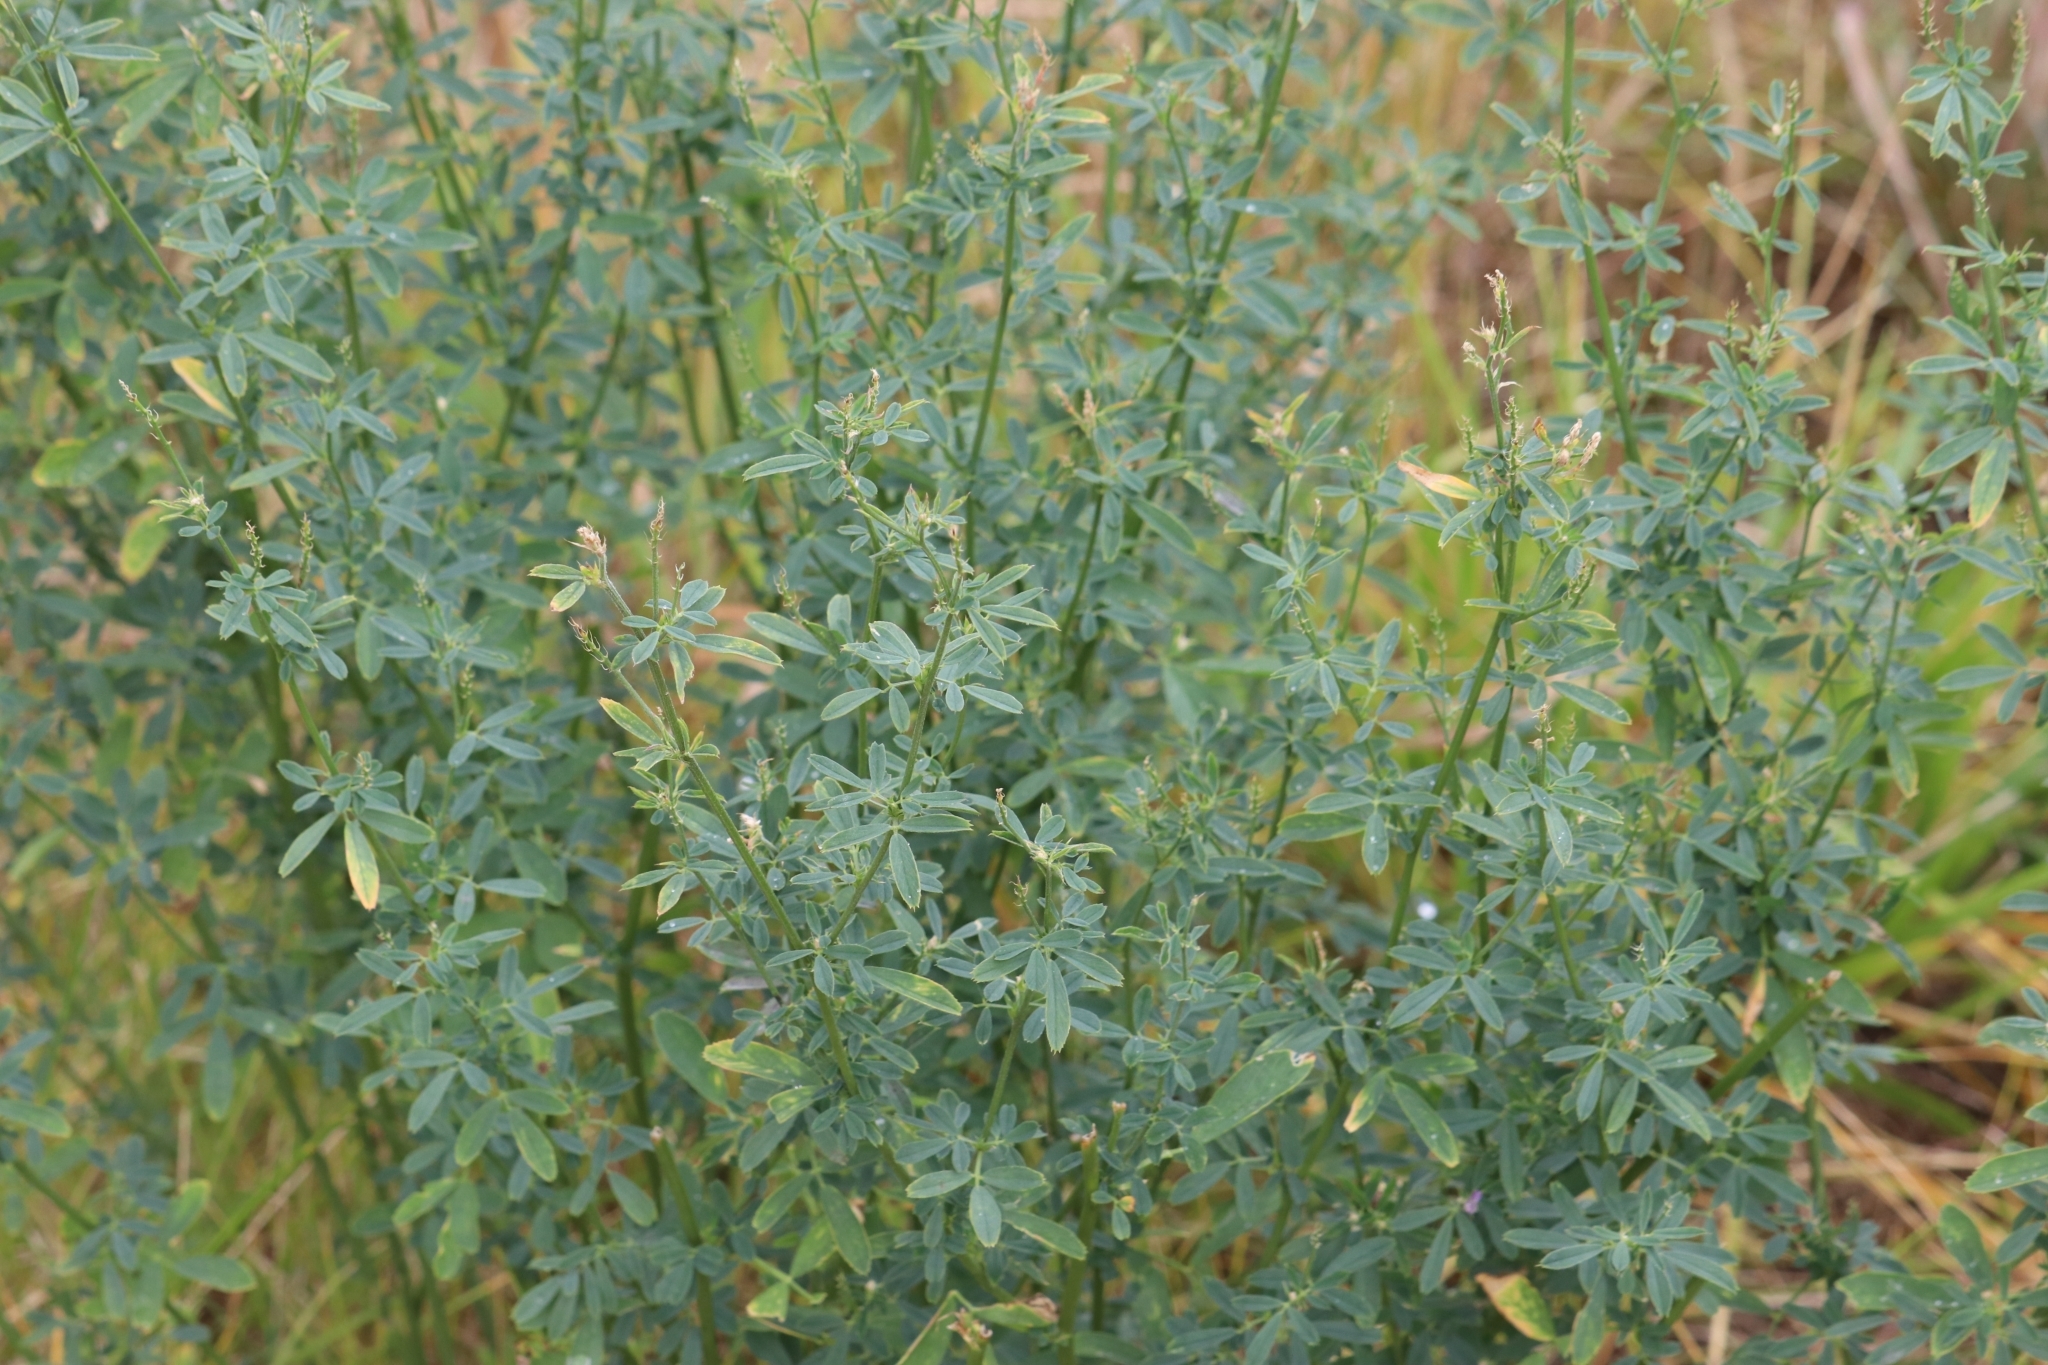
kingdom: Plantae
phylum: Tracheophyta
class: Magnoliopsida
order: Fabales
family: Fabaceae
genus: Melilotus
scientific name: Melilotus albus
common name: White melilot
